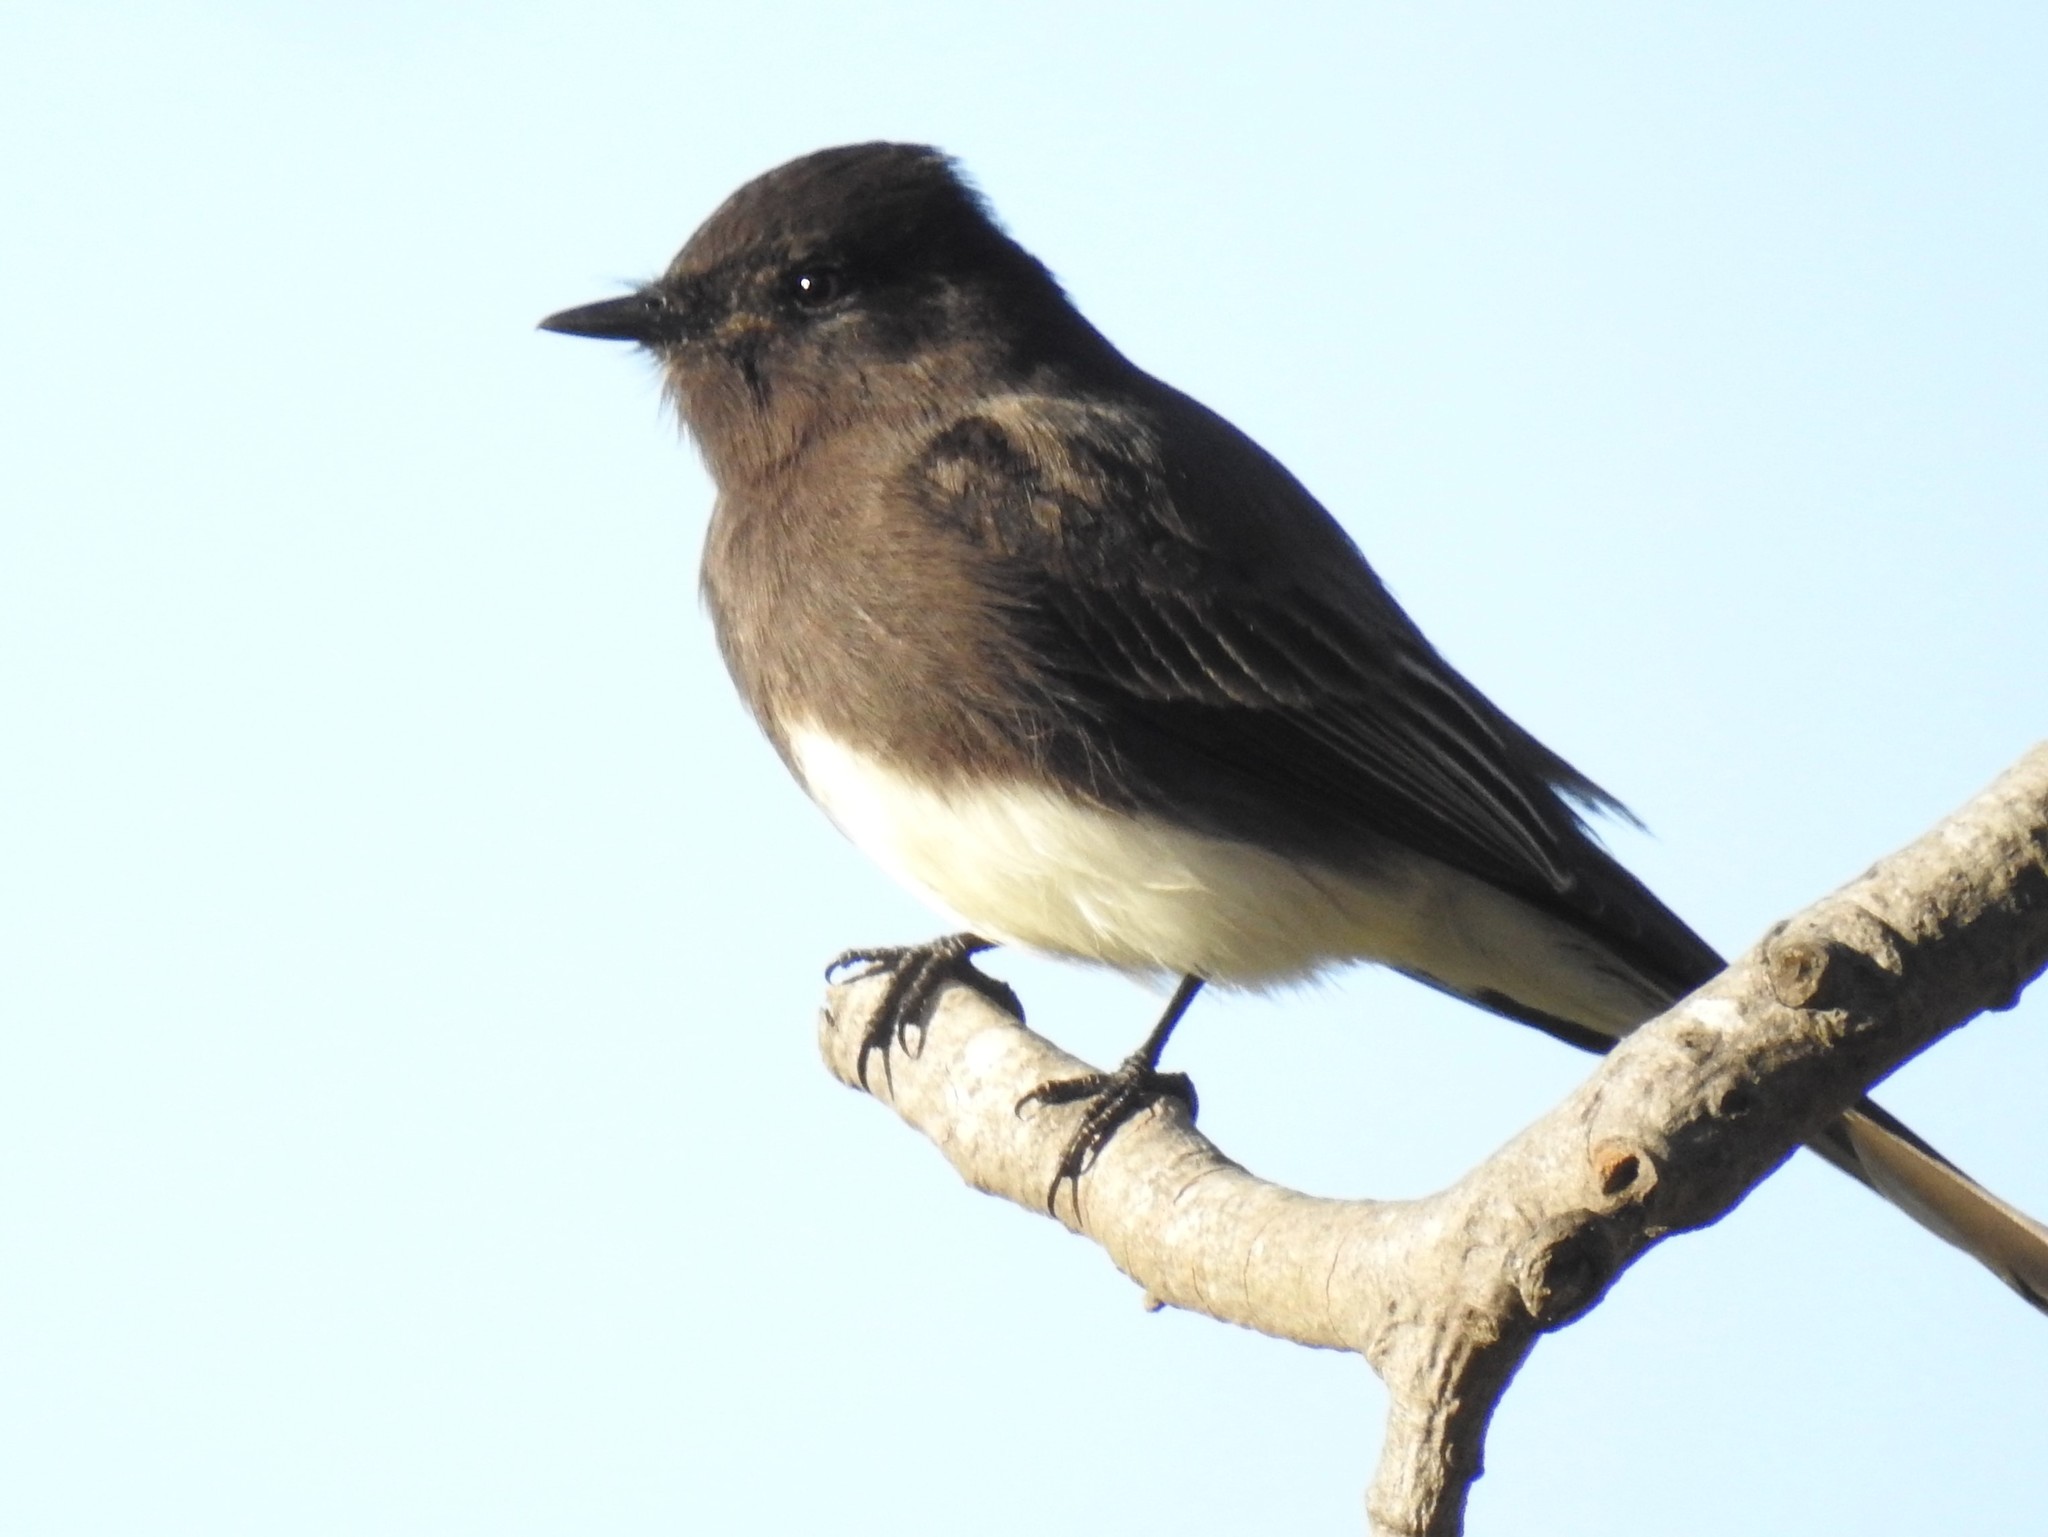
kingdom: Animalia
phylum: Chordata
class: Aves
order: Passeriformes
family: Tyrannidae
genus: Sayornis
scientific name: Sayornis nigricans
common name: Black phoebe
